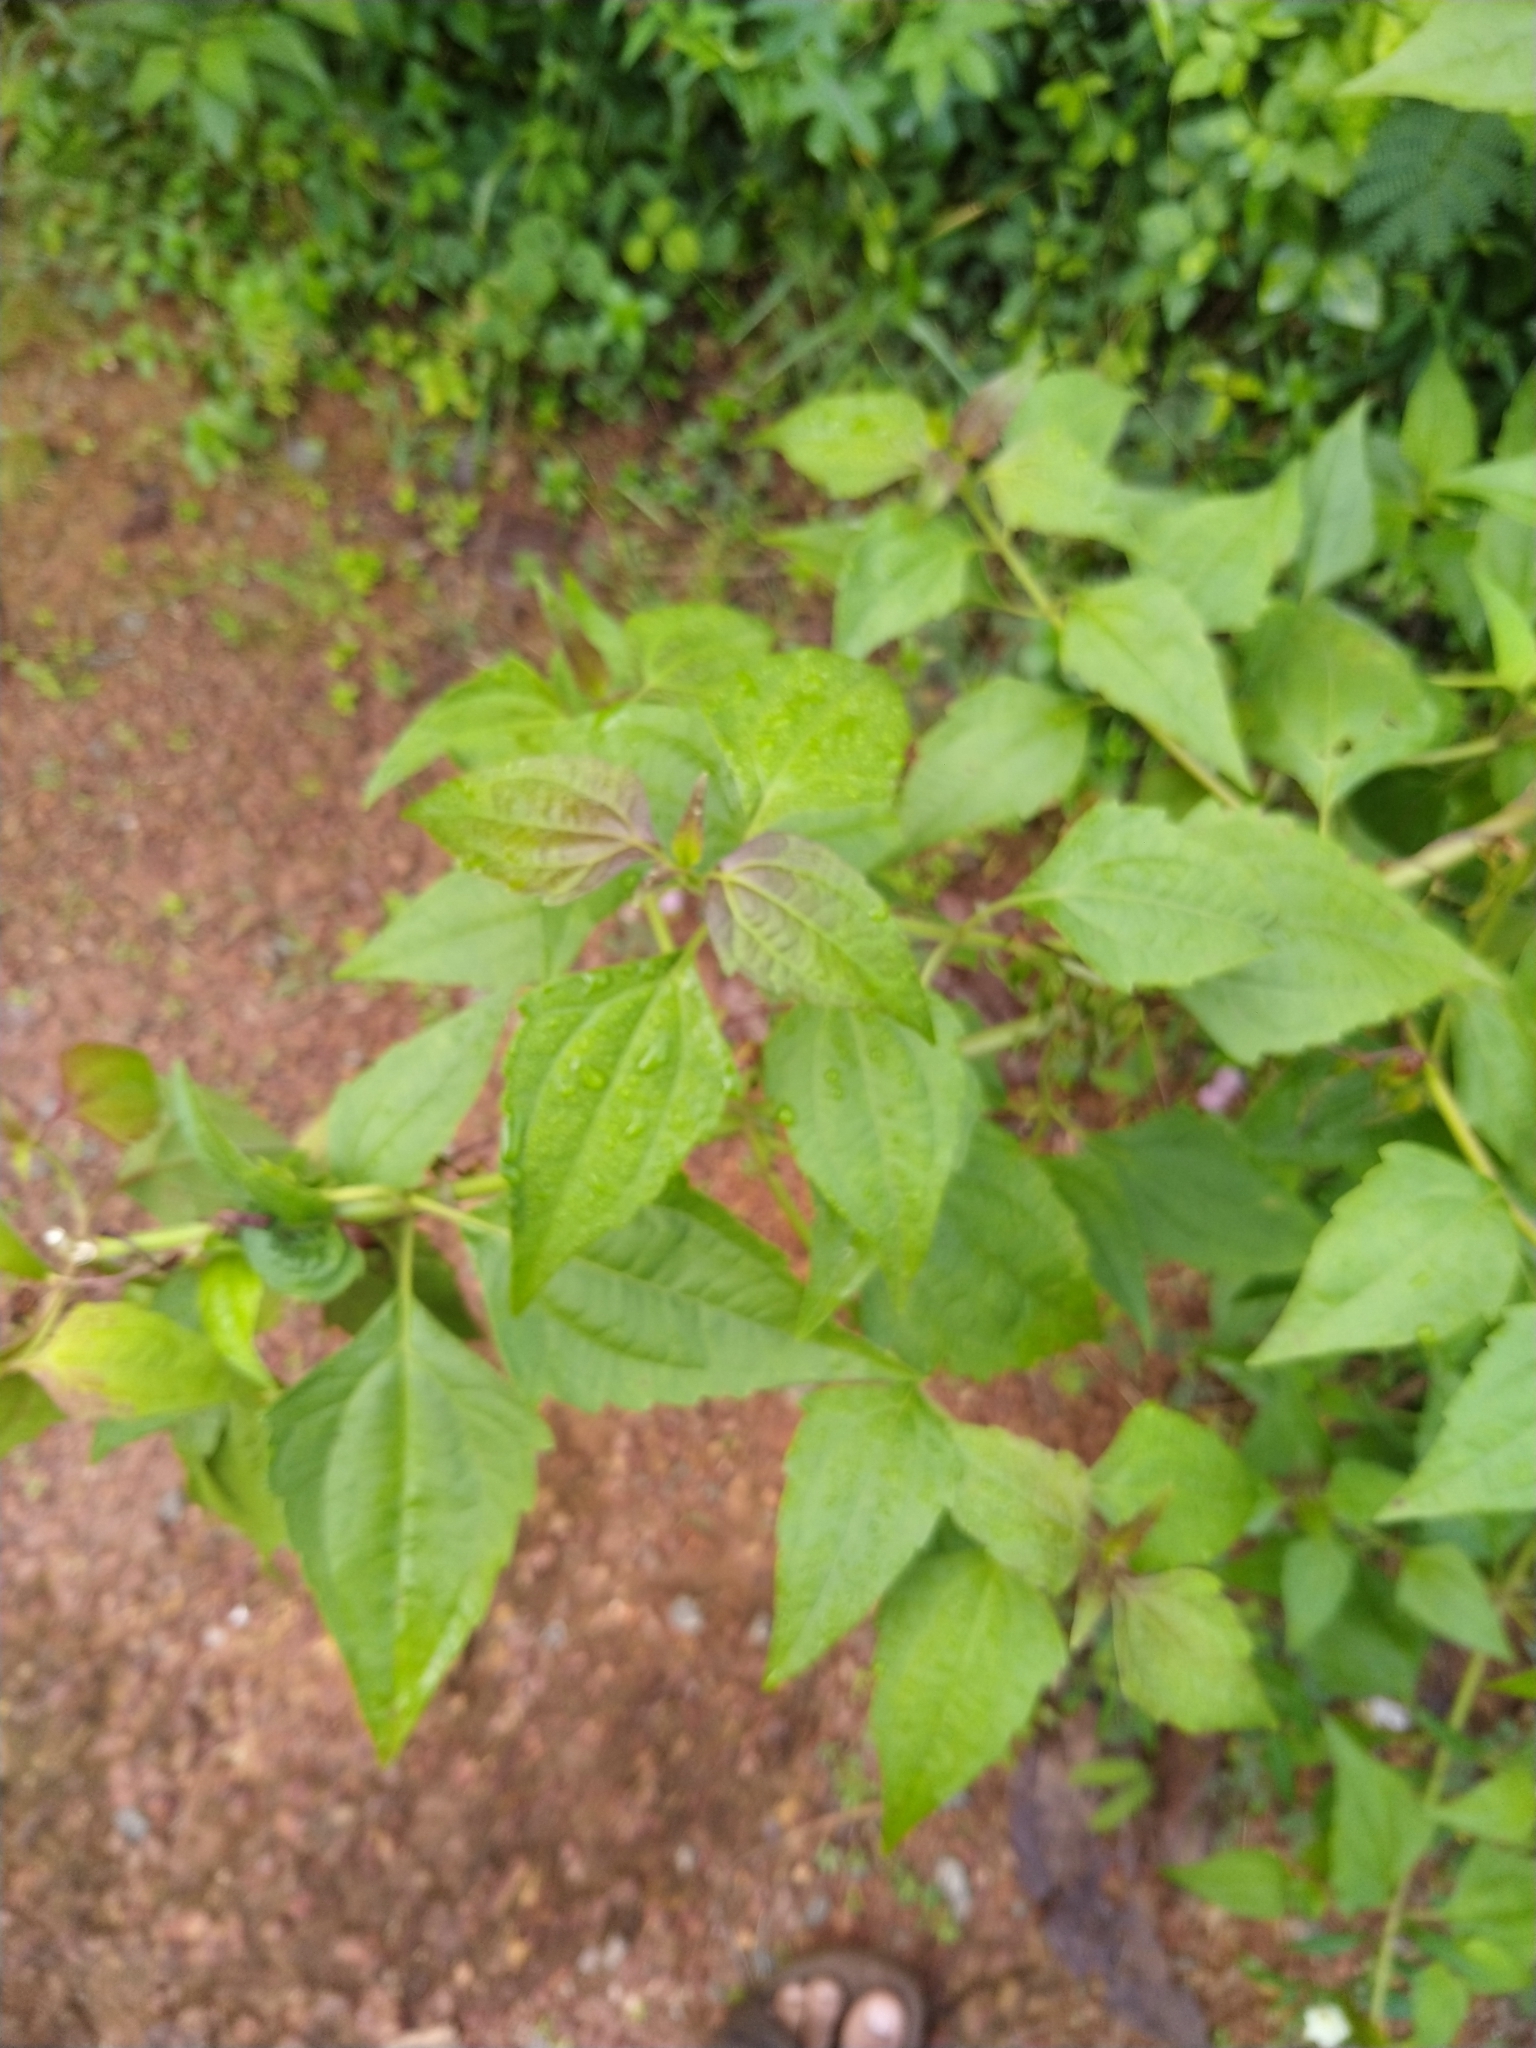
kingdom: Plantae
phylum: Tracheophyta
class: Magnoliopsida
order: Asterales
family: Asteraceae
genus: Chromolaena
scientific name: Chromolaena odorata
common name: Siamweed
